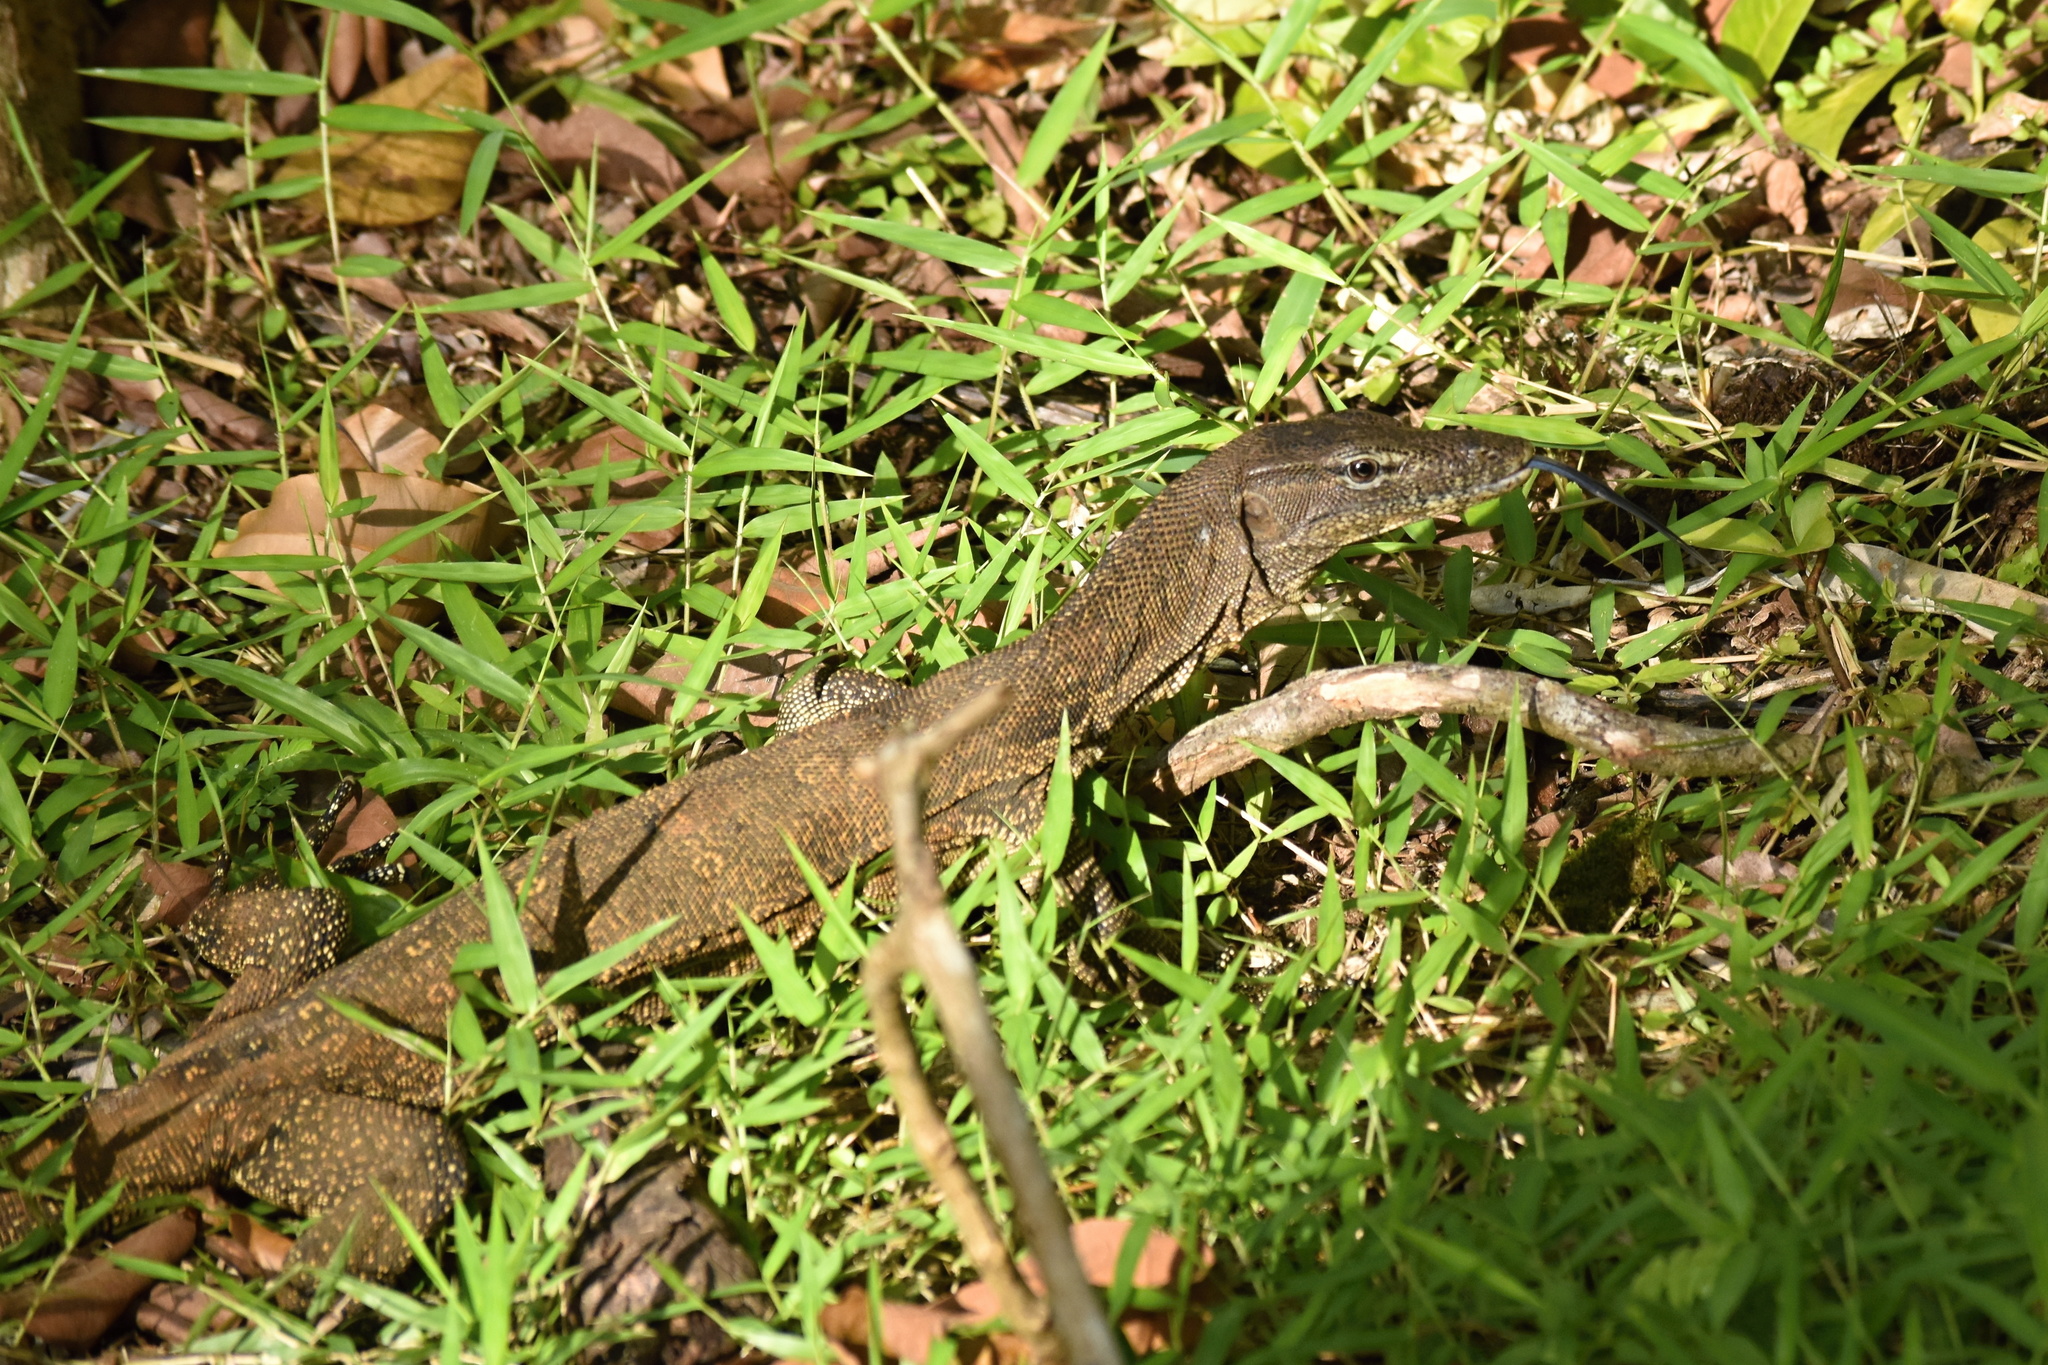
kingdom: Animalia
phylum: Chordata
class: Squamata
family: Varanidae
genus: Varanus
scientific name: Varanus salvator
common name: Common water monitor
